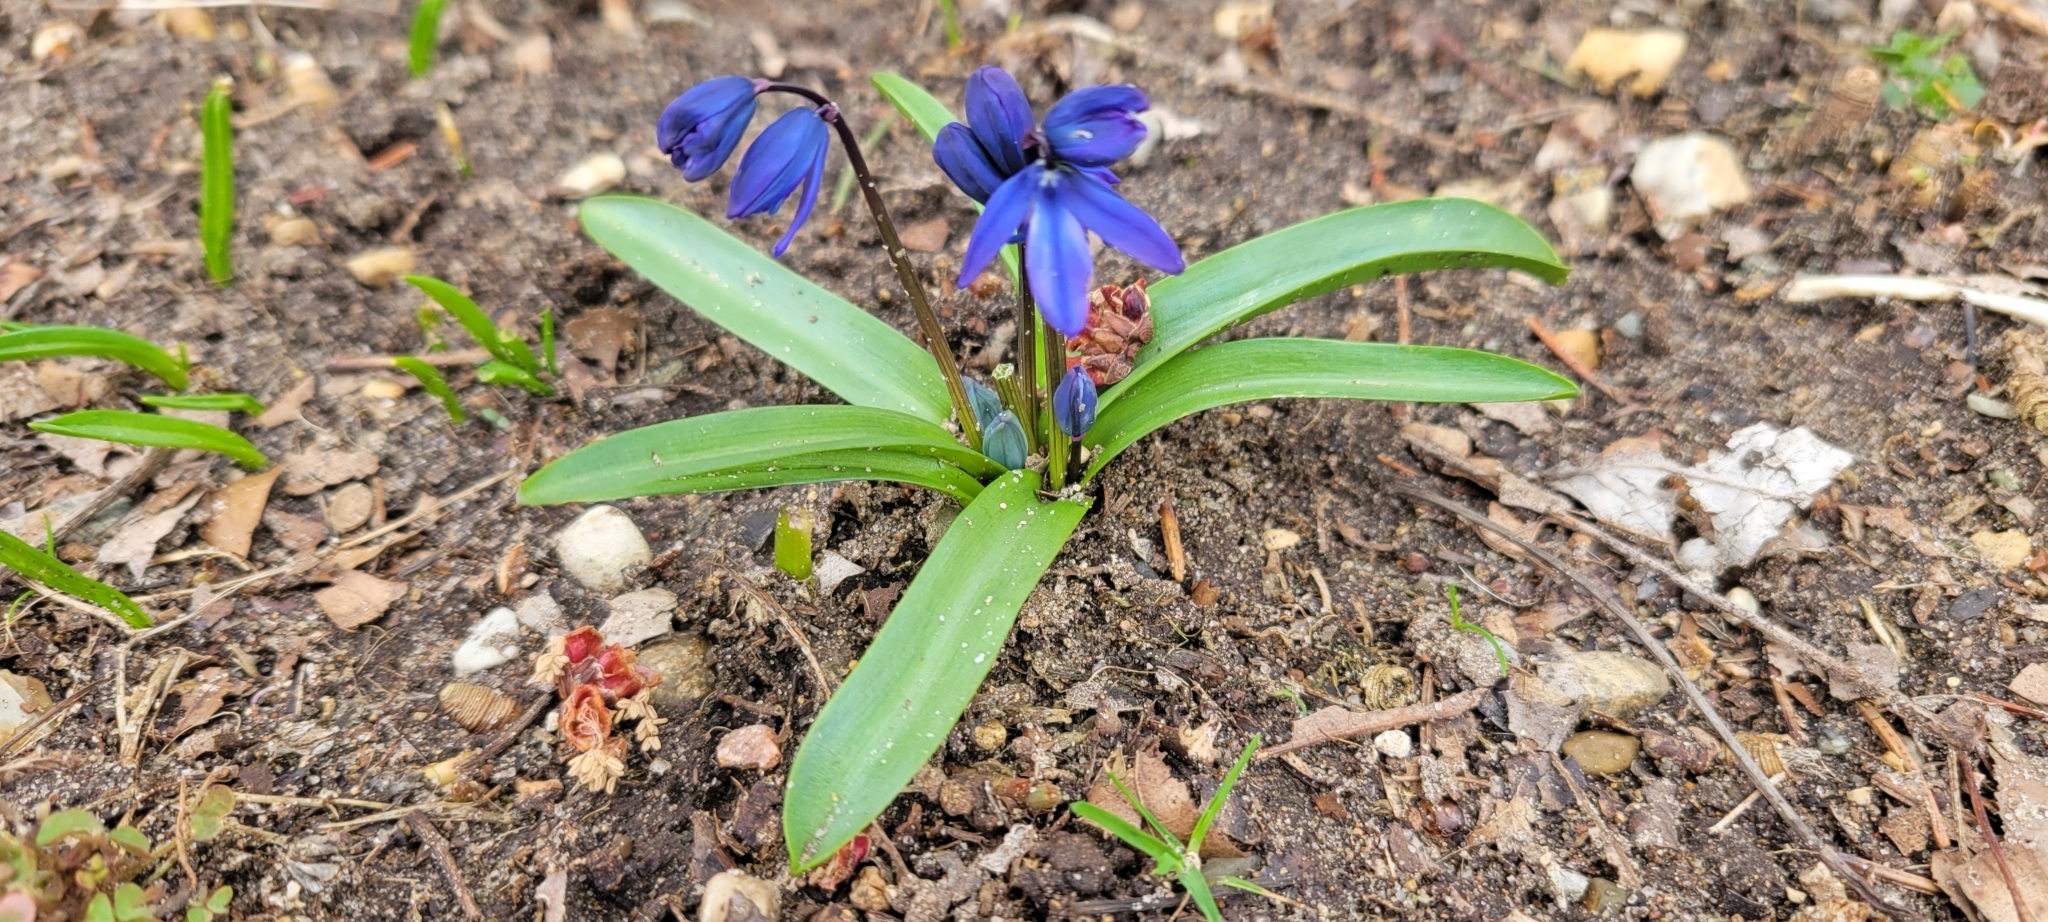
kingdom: Plantae
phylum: Tracheophyta
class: Liliopsida
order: Asparagales
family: Asparagaceae
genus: Scilla
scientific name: Scilla siberica
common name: Siberian squill
